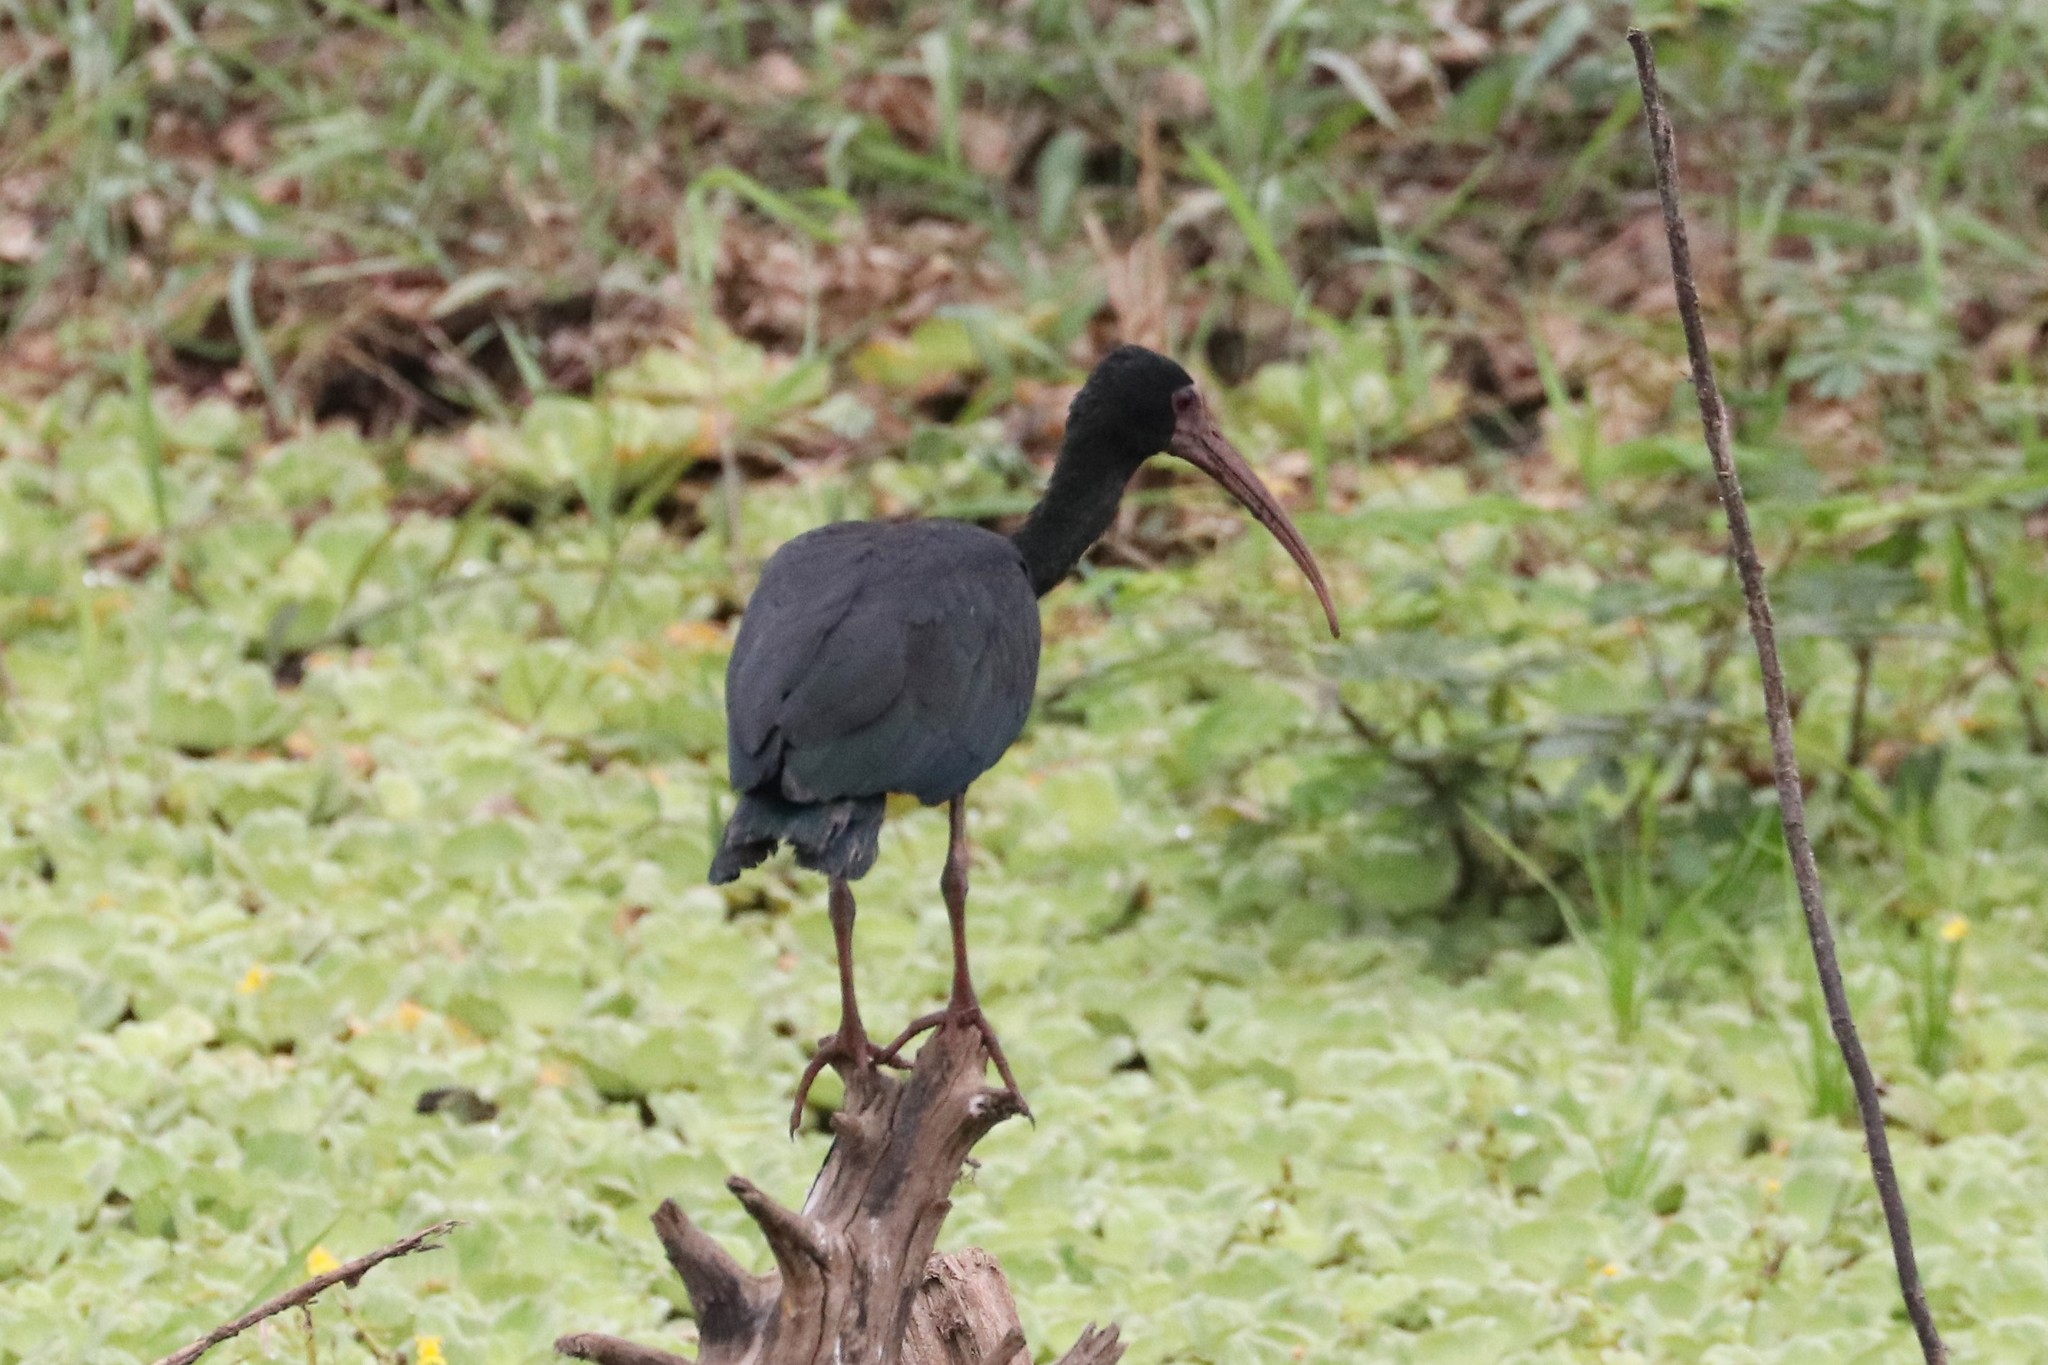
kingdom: Animalia
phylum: Chordata
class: Aves
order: Pelecaniformes
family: Threskiornithidae
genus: Phimosus
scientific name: Phimosus infuscatus
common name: Bare-faced ibis
